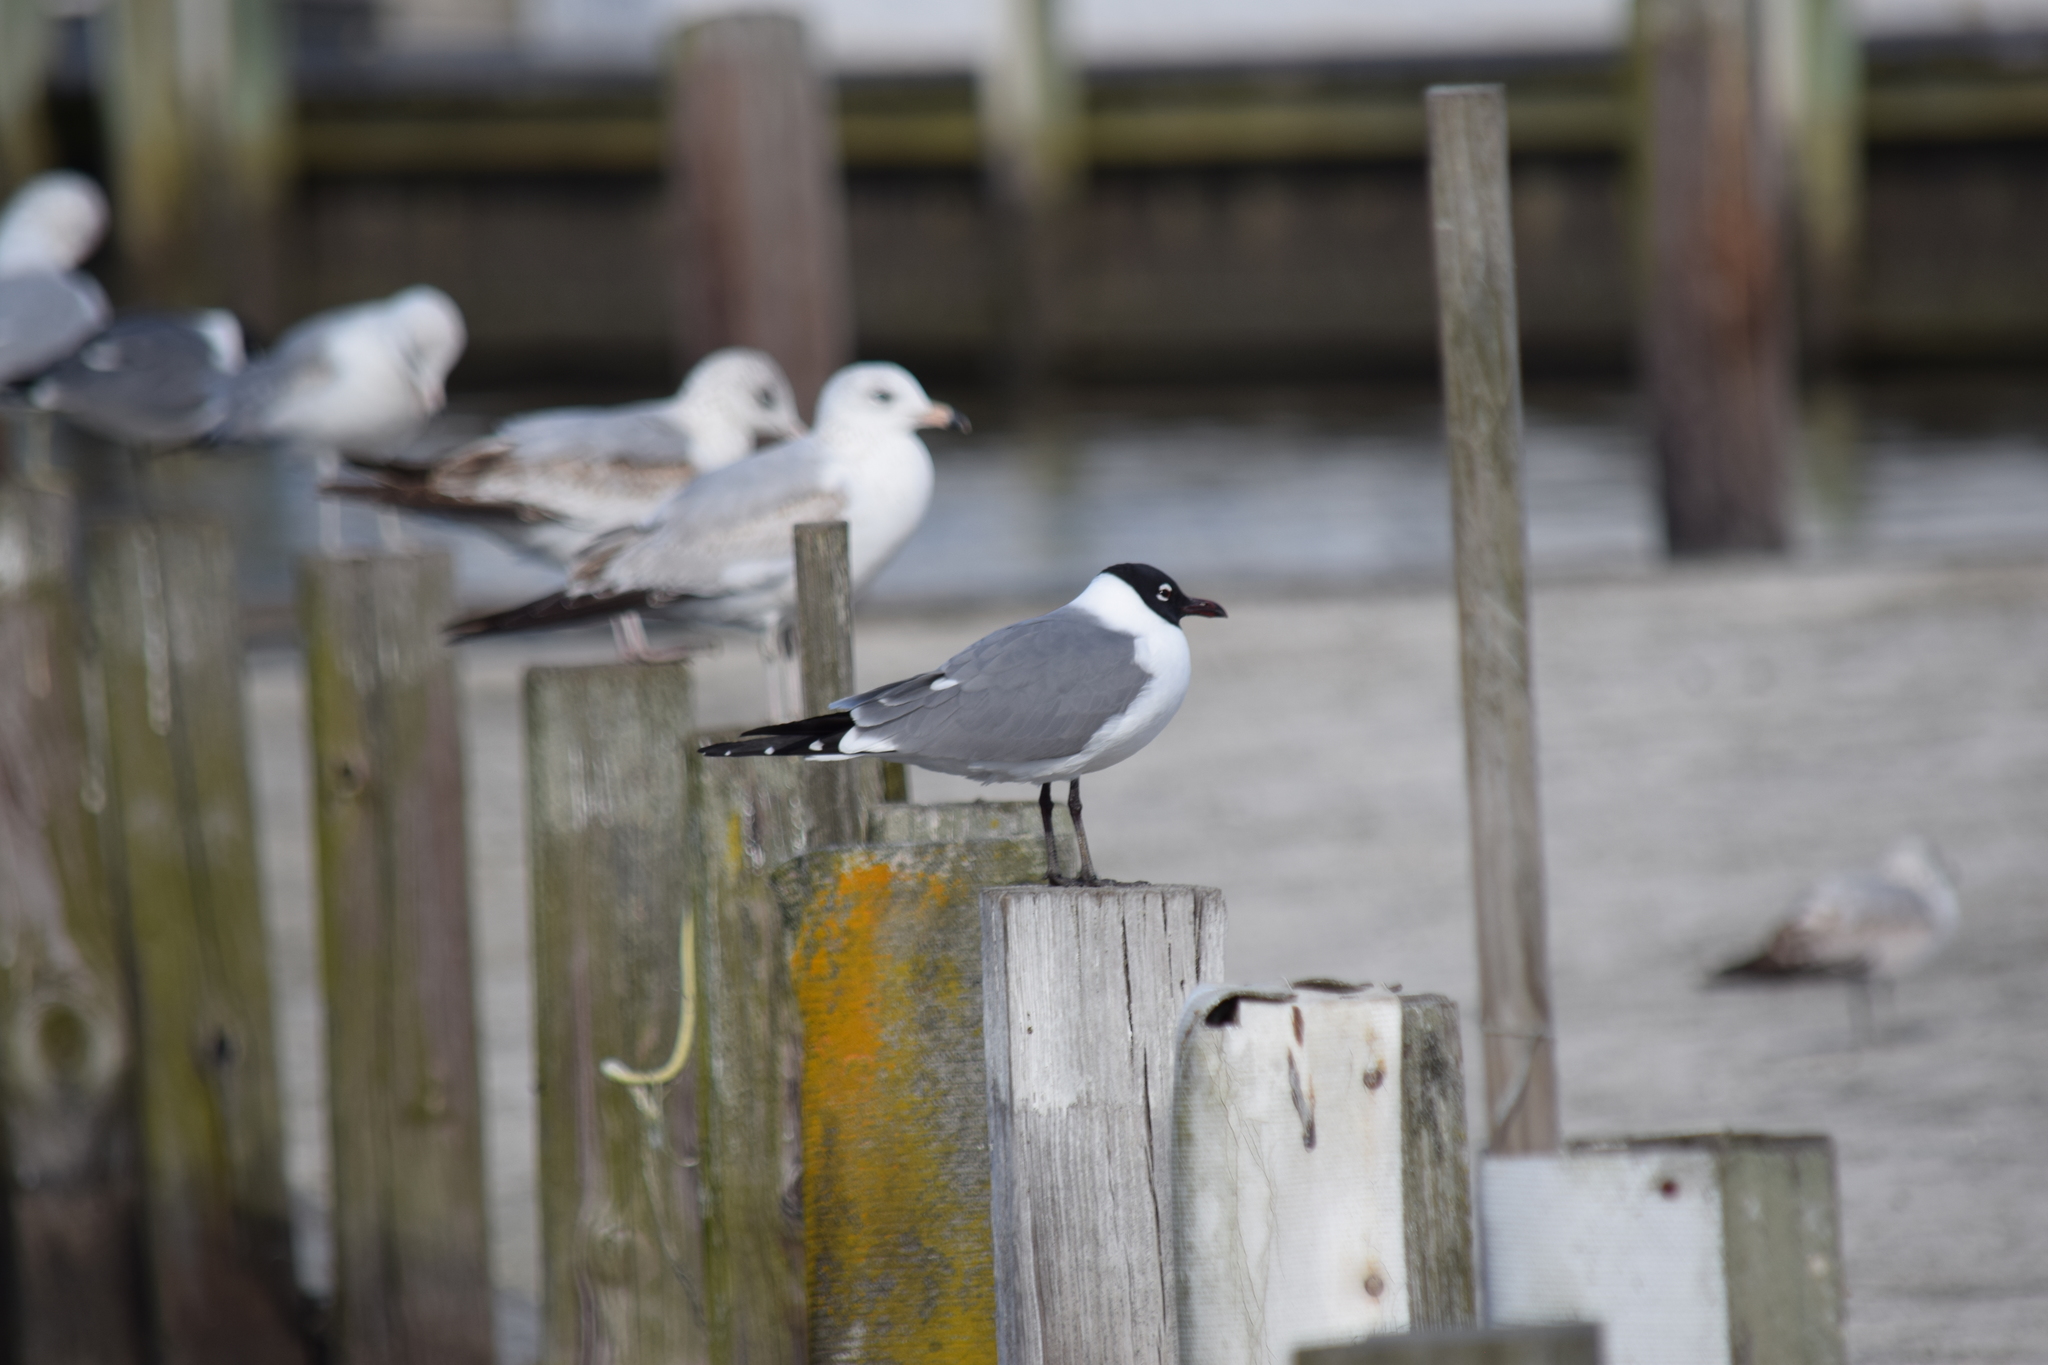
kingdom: Animalia
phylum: Chordata
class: Aves
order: Charadriiformes
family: Laridae
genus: Leucophaeus
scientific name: Leucophaeus atricilla
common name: Laughing gull
